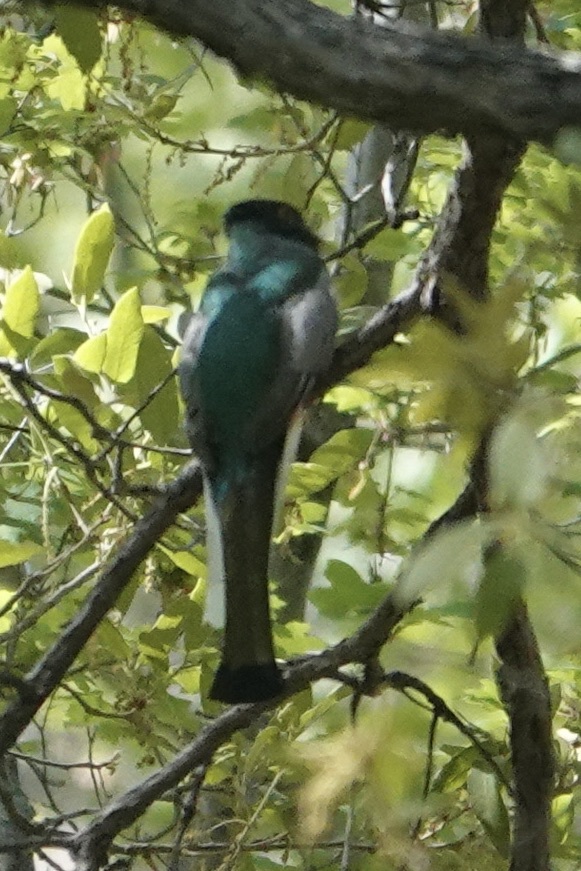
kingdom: Animalia
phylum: Chordata
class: Aves
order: Trogoniformes
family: Trogonidae
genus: Trogon
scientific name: Trogon elegans
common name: Elegant trogon
